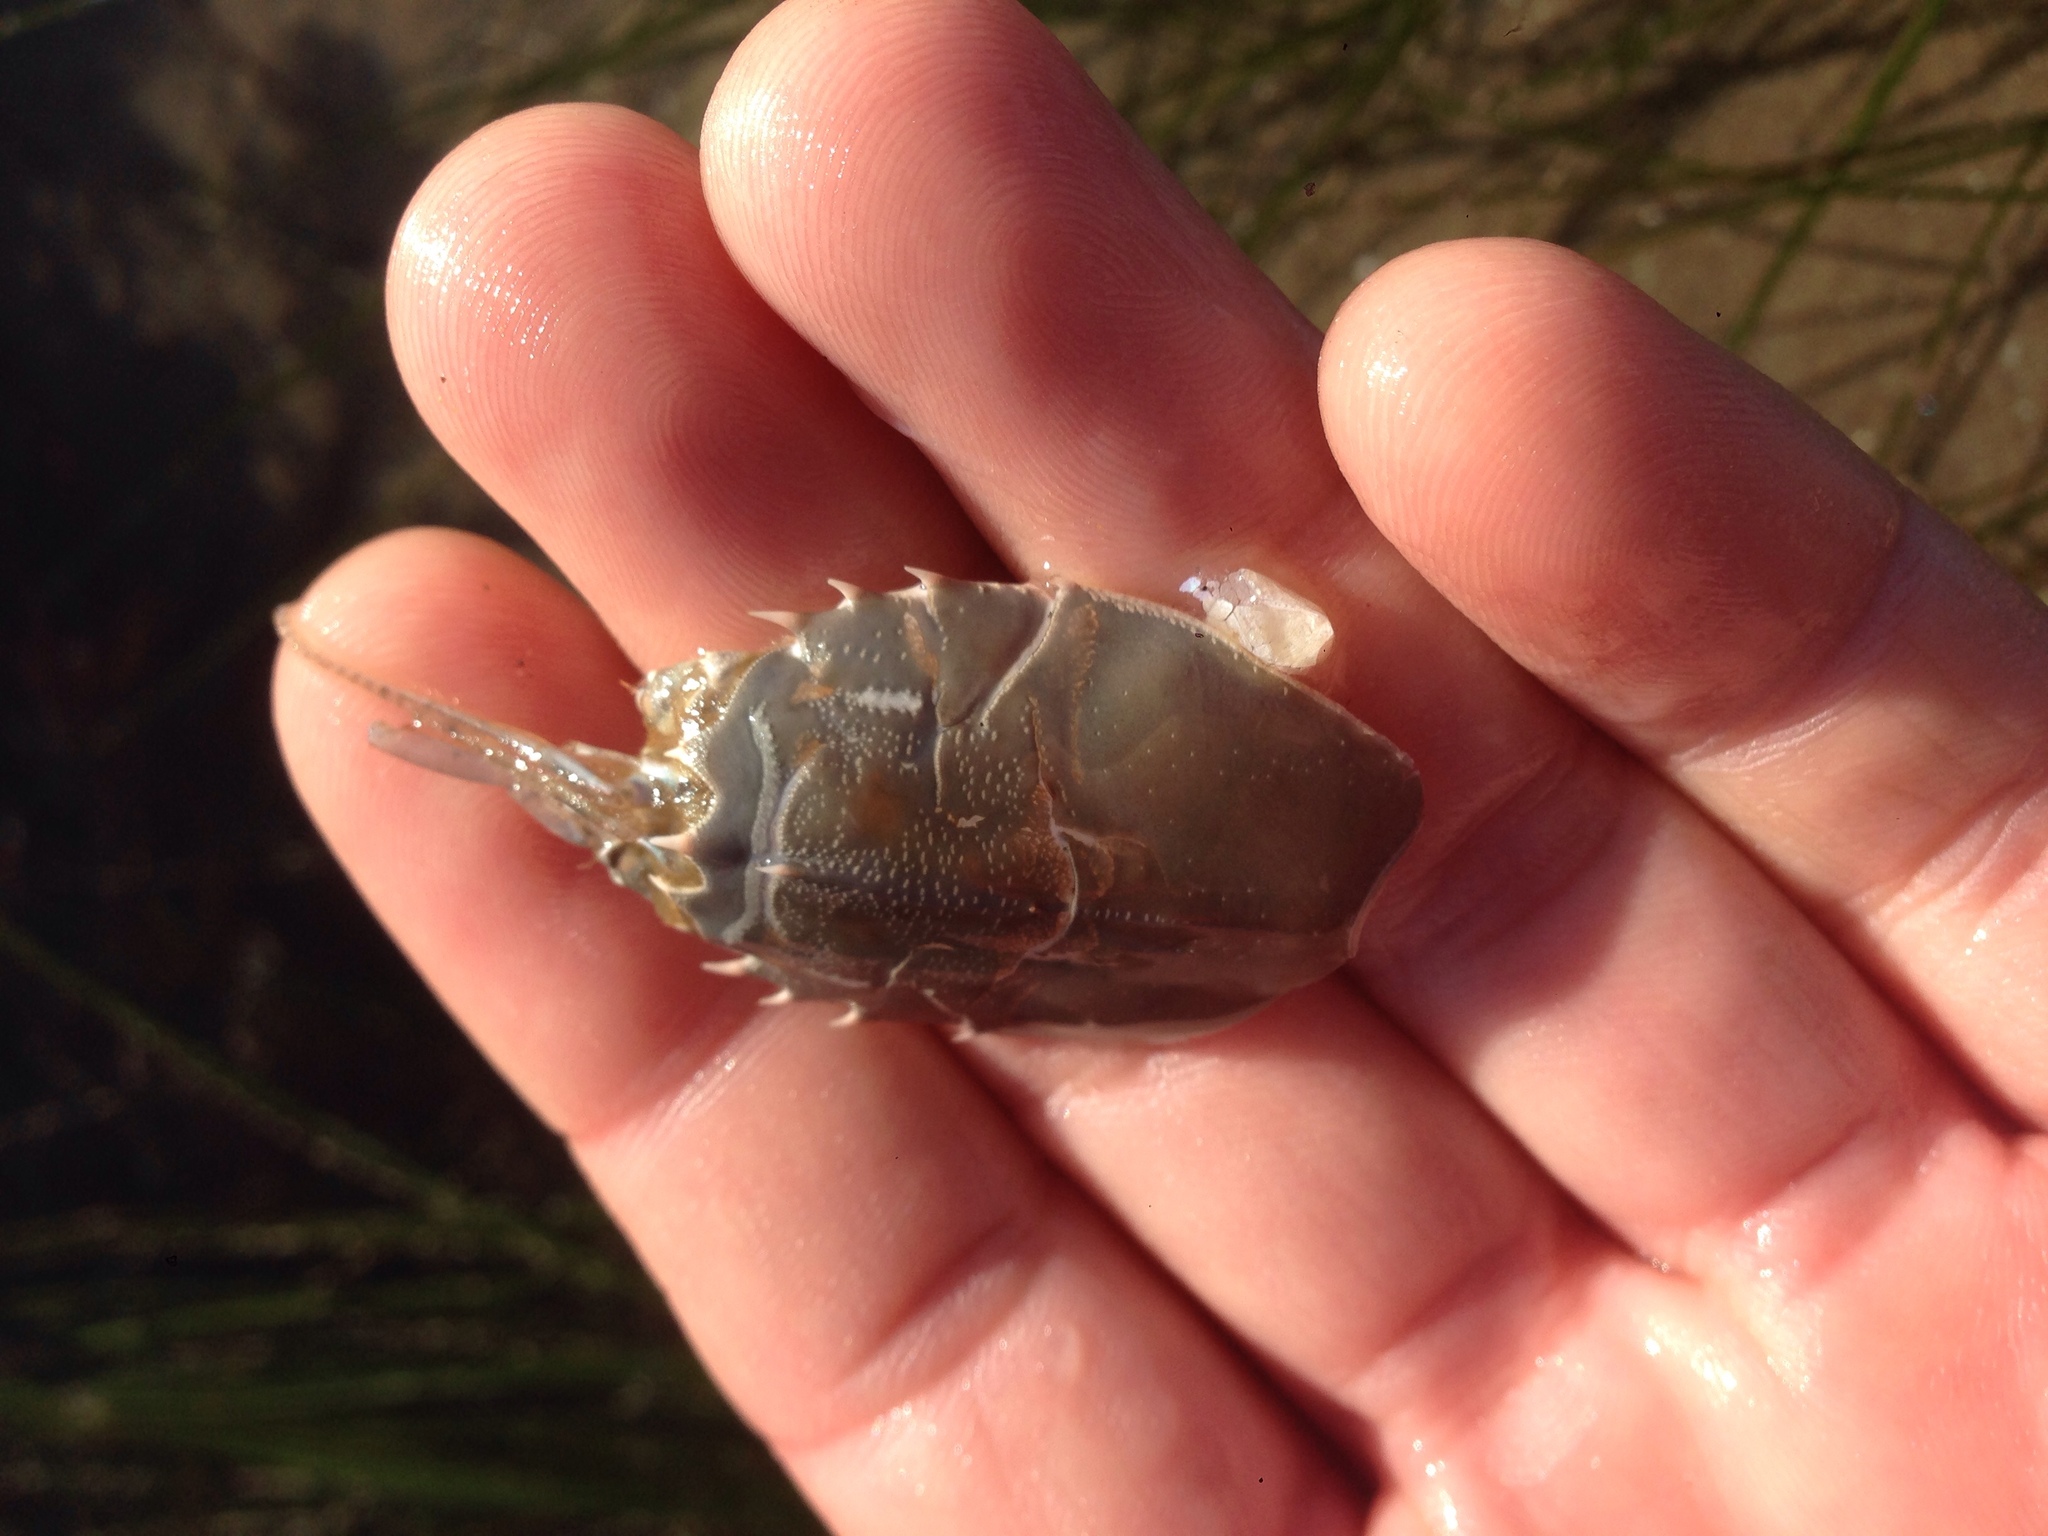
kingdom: Animalia
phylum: Arthropoda
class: Malacostraca
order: Decapoda
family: Blepharipodidae
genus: Blepharipoda
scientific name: Blepharipoda occidentalis
